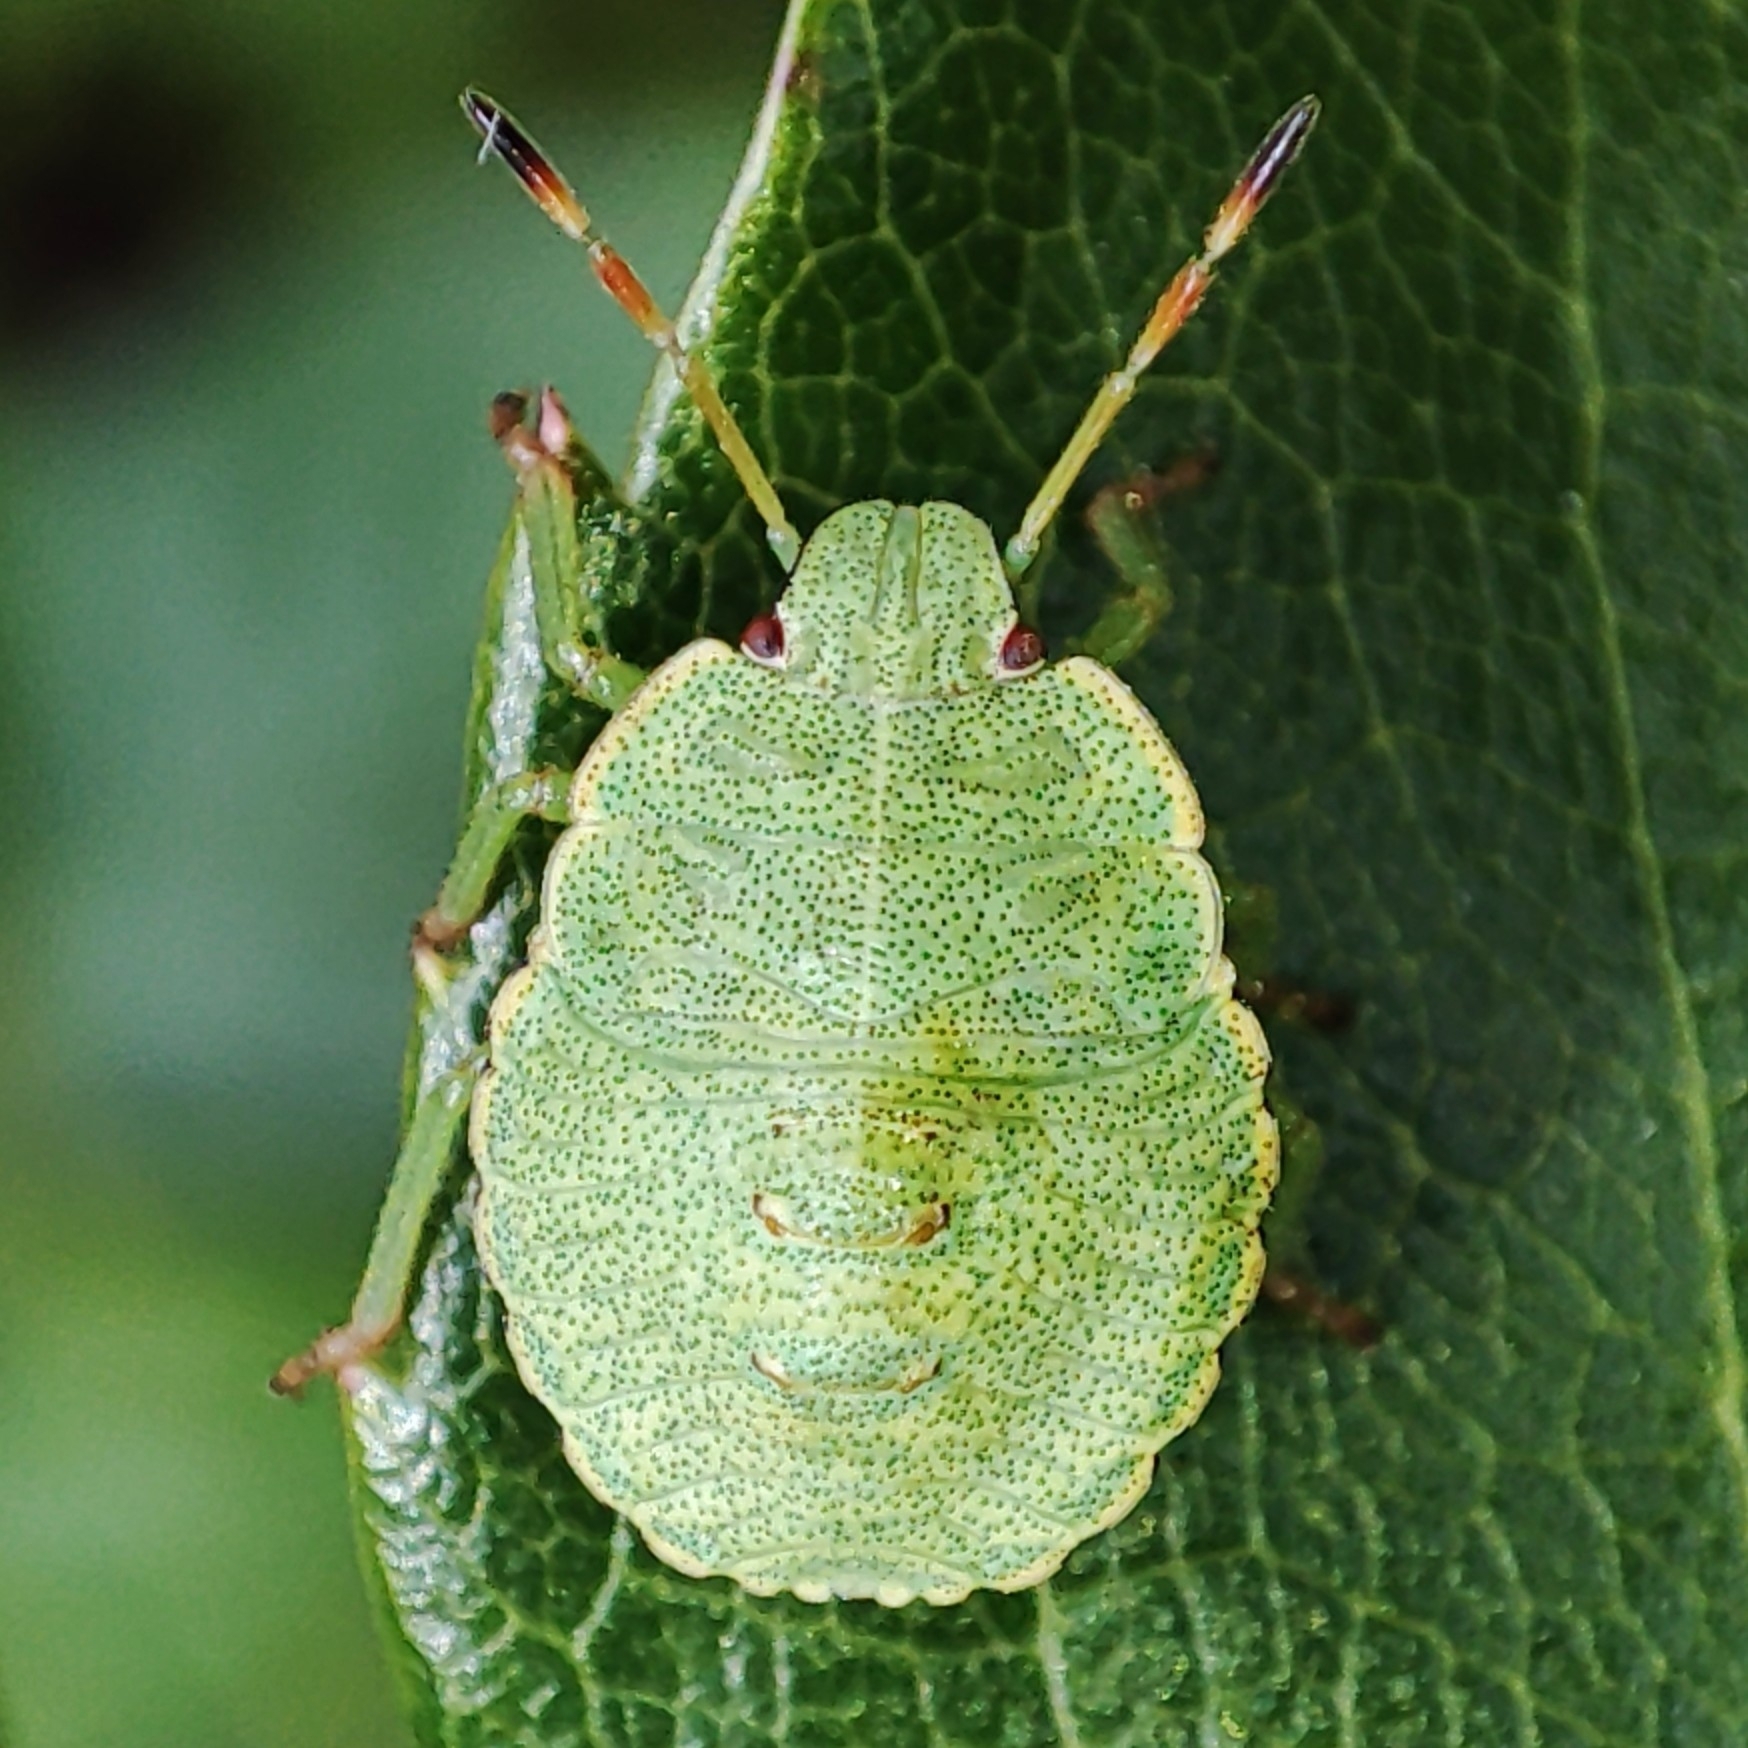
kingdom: Animalia
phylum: Arthropoda
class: Insecta
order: Hemiptera
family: Pentatomidae
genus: Palomena
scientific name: Palomena prasina
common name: Green shieldbug
